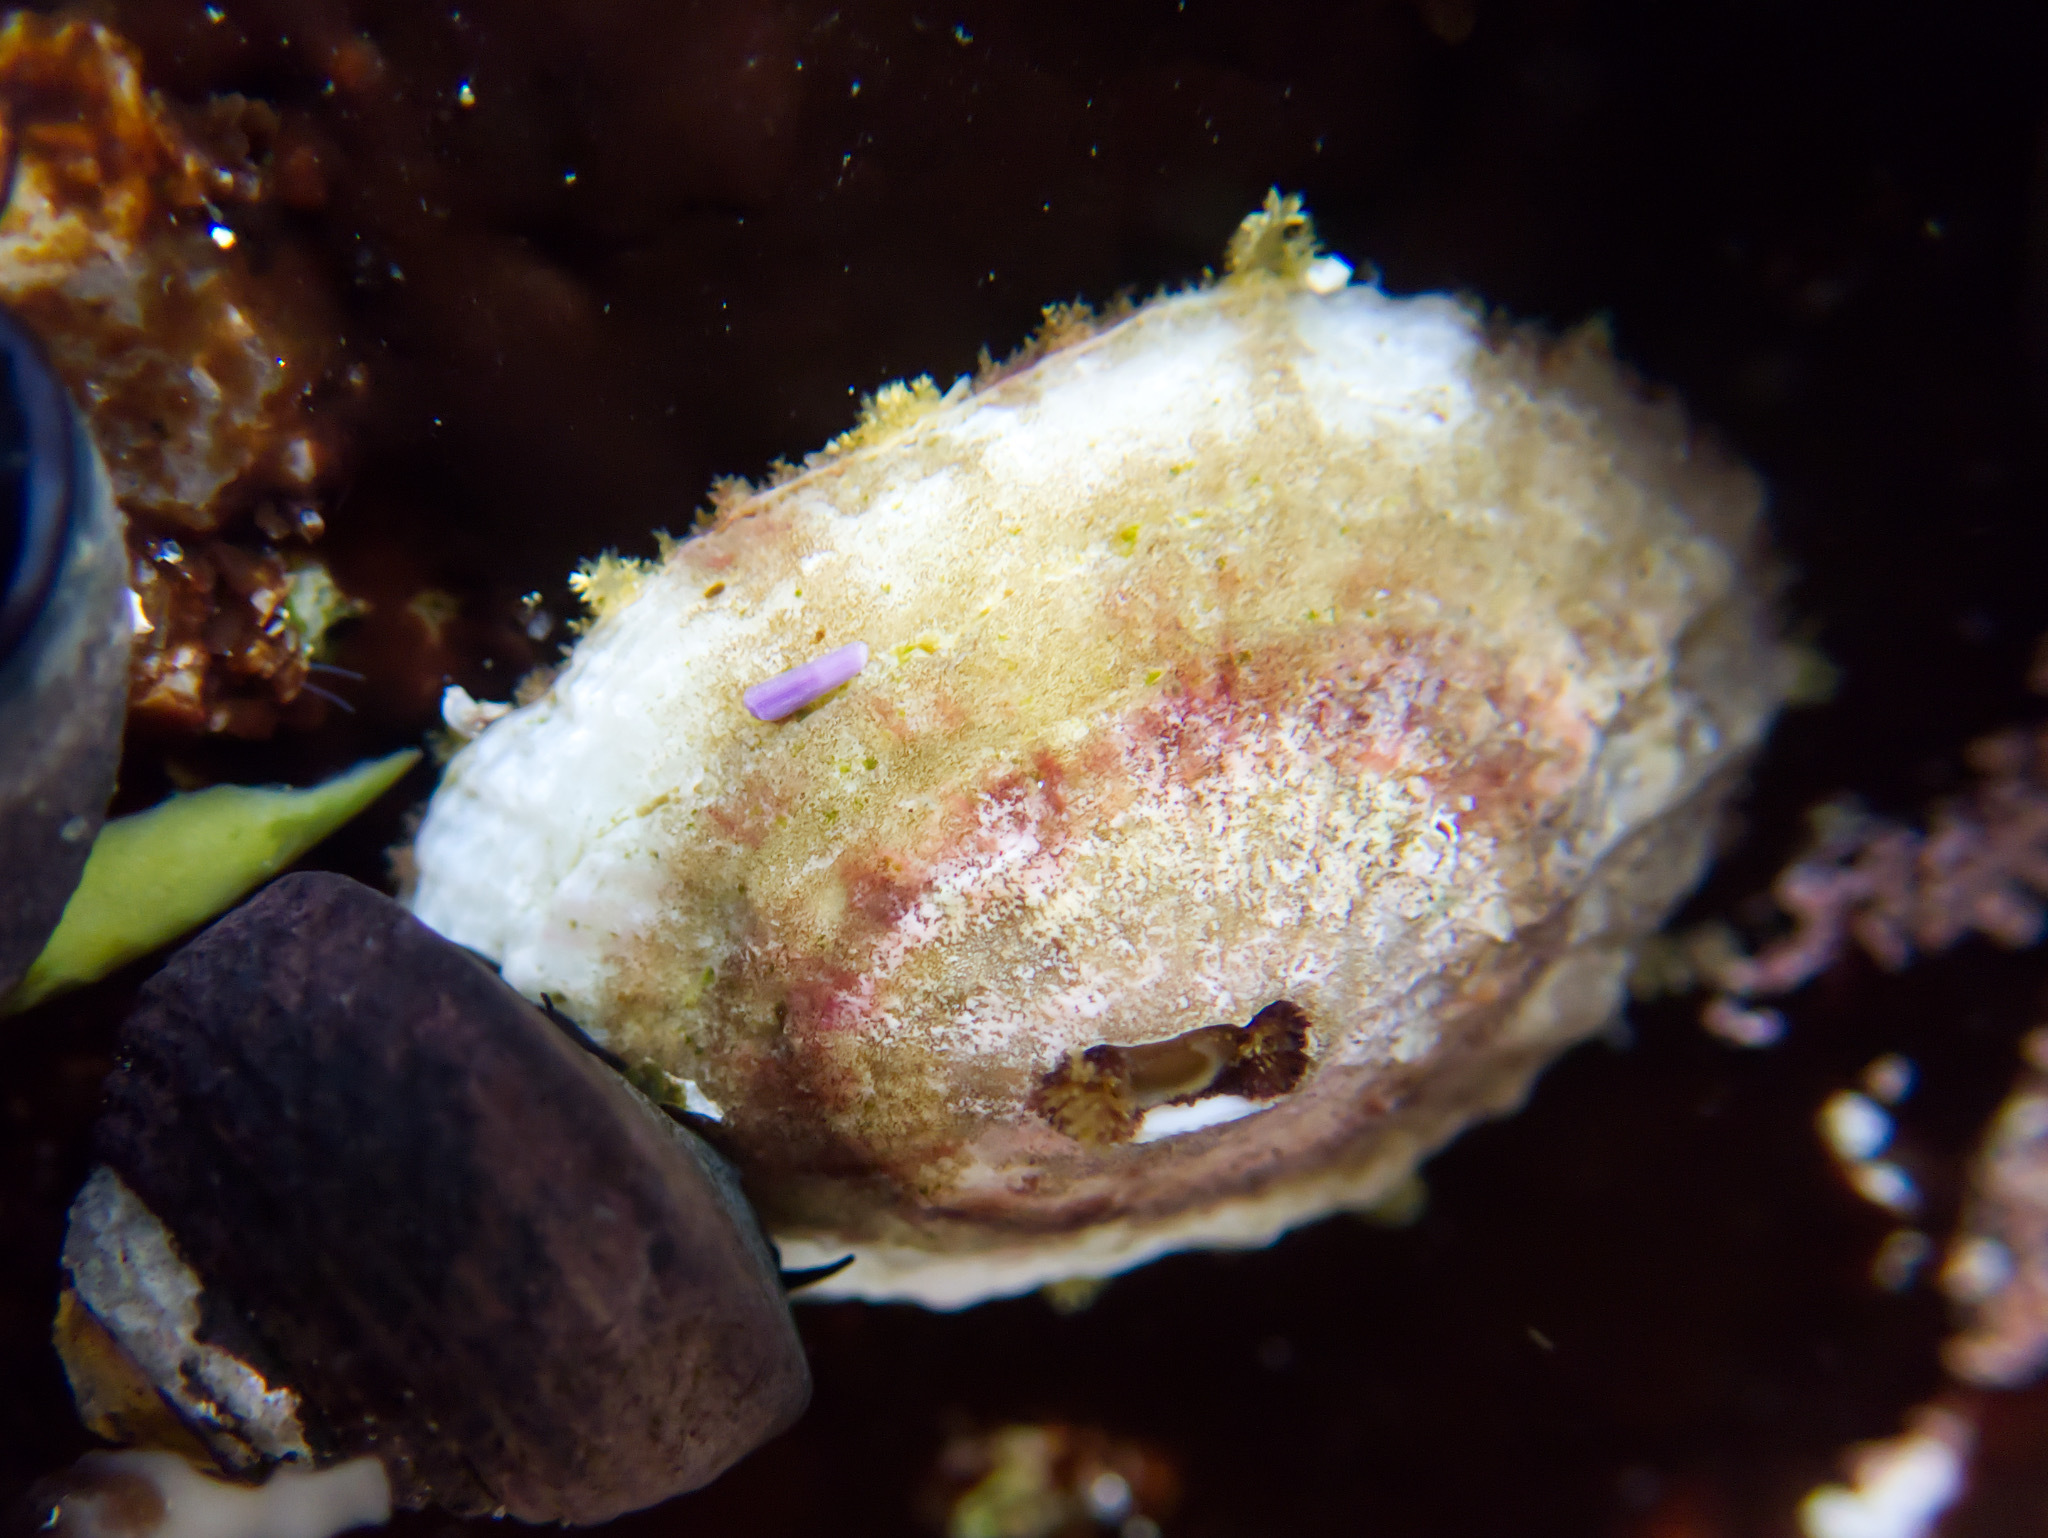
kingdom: Animalia
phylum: Mollusca
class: Gastropoda
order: Lepetellida
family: Fissurellidae
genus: Fissurella
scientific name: Fissurella volcano
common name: Volcano keyhole limpet
